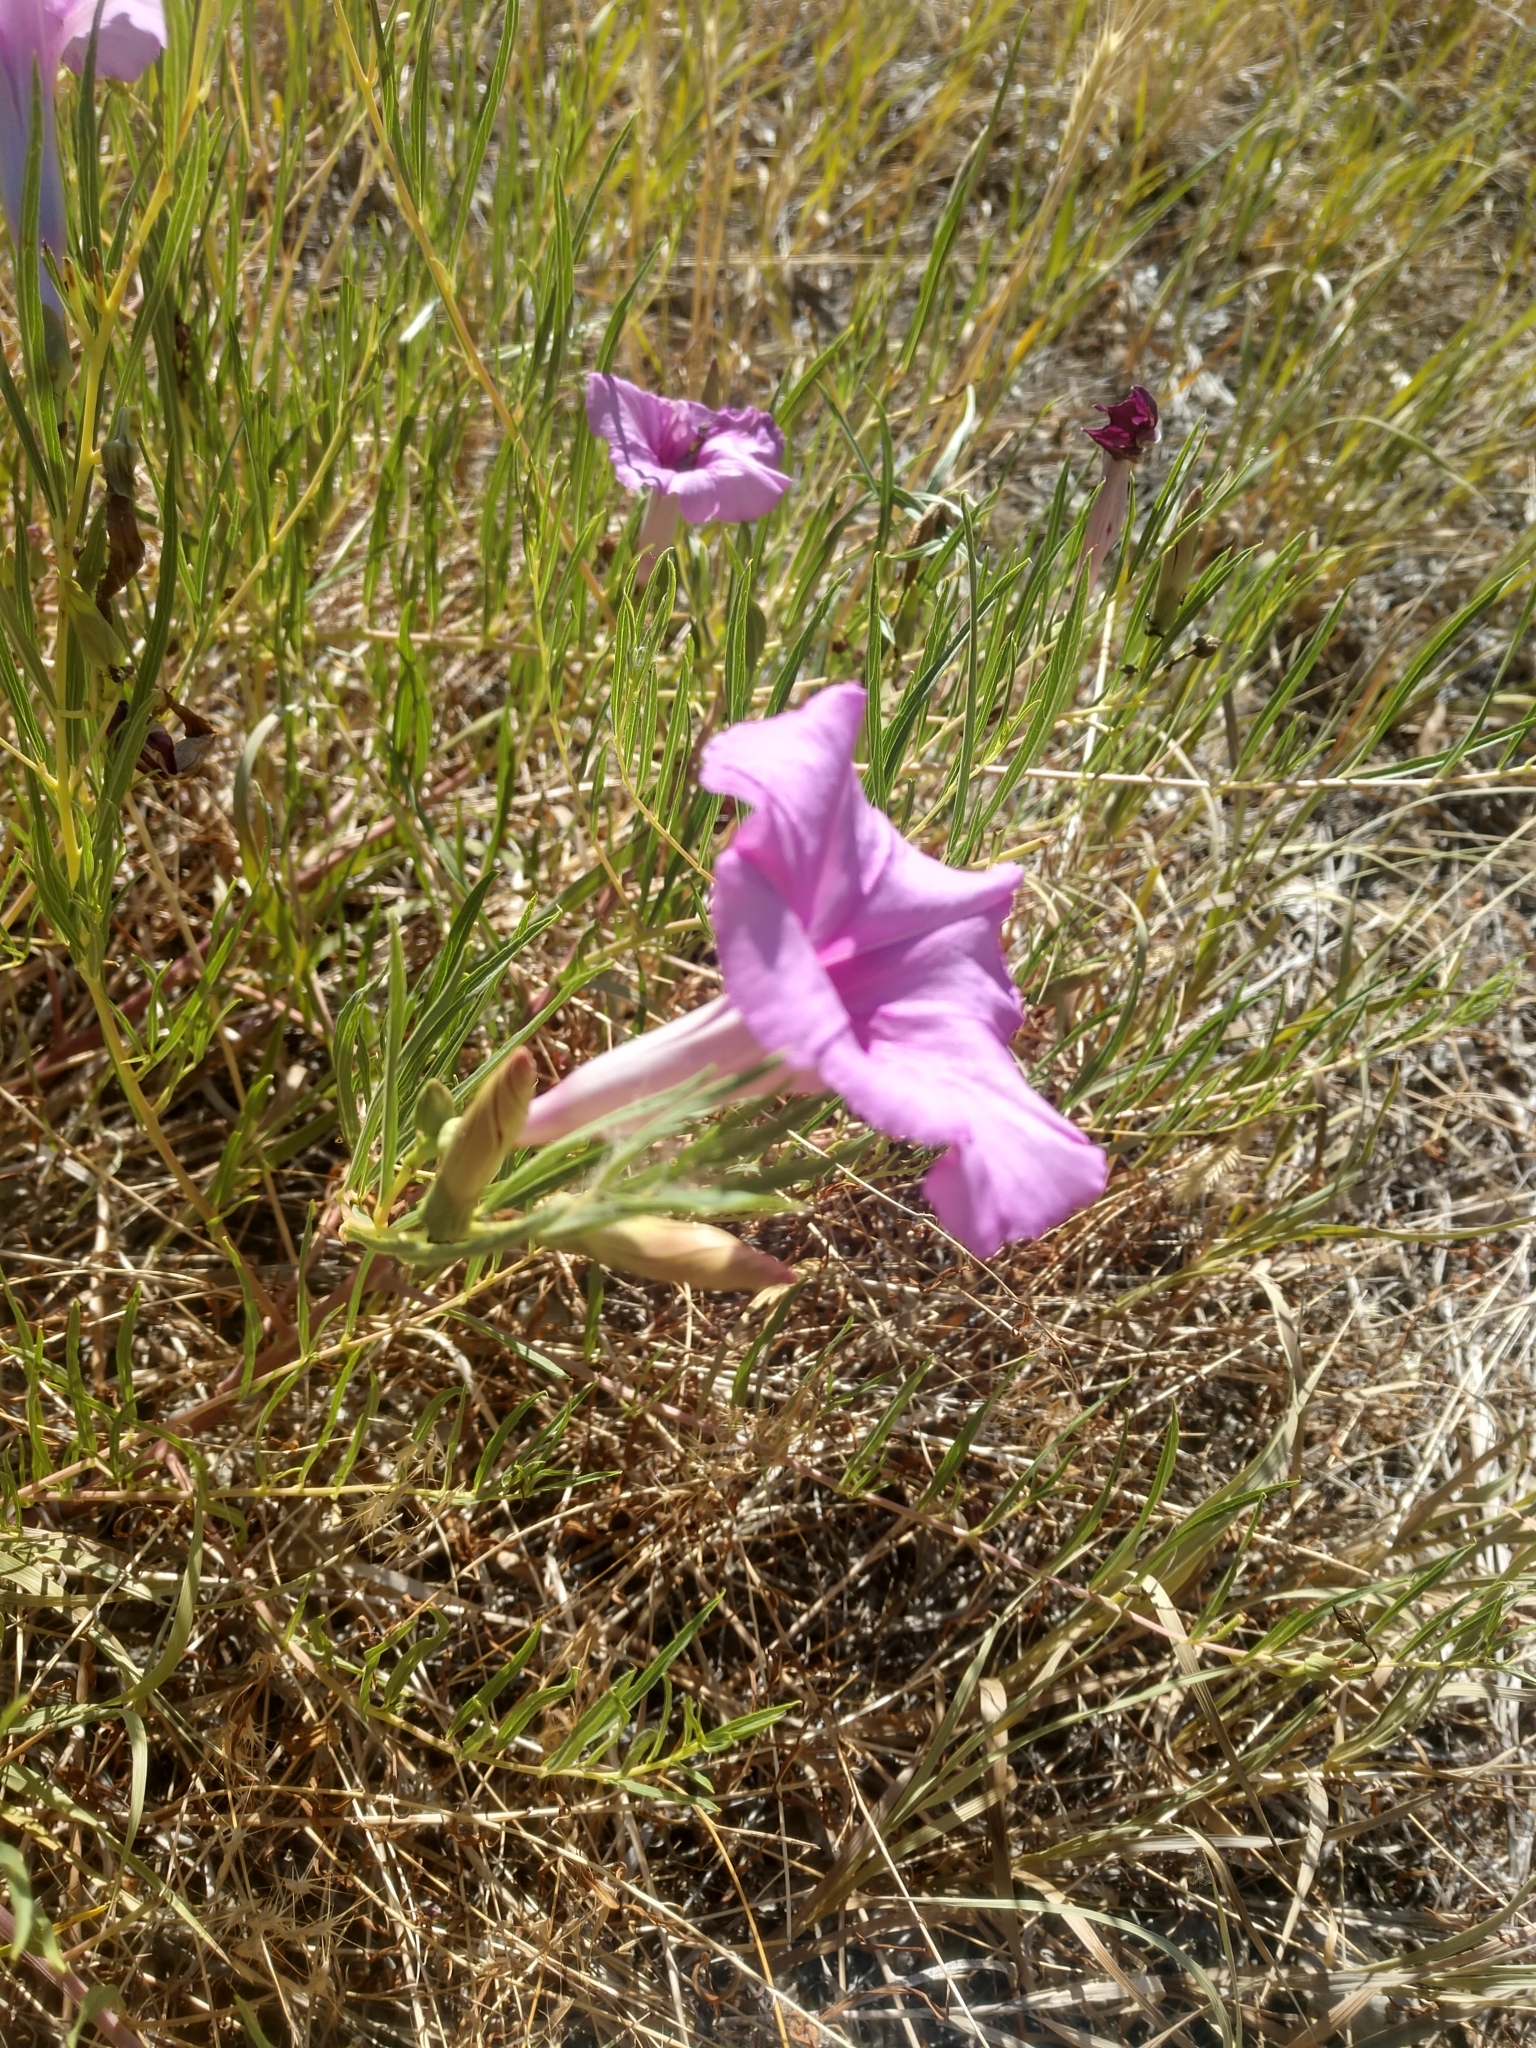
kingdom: Plantae
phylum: Tracheophyta
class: Magnoliopsida
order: Solanales
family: Convolvulaceae
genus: Ipomoea
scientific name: Ipomoea leptophylla
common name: Bush moonflower
